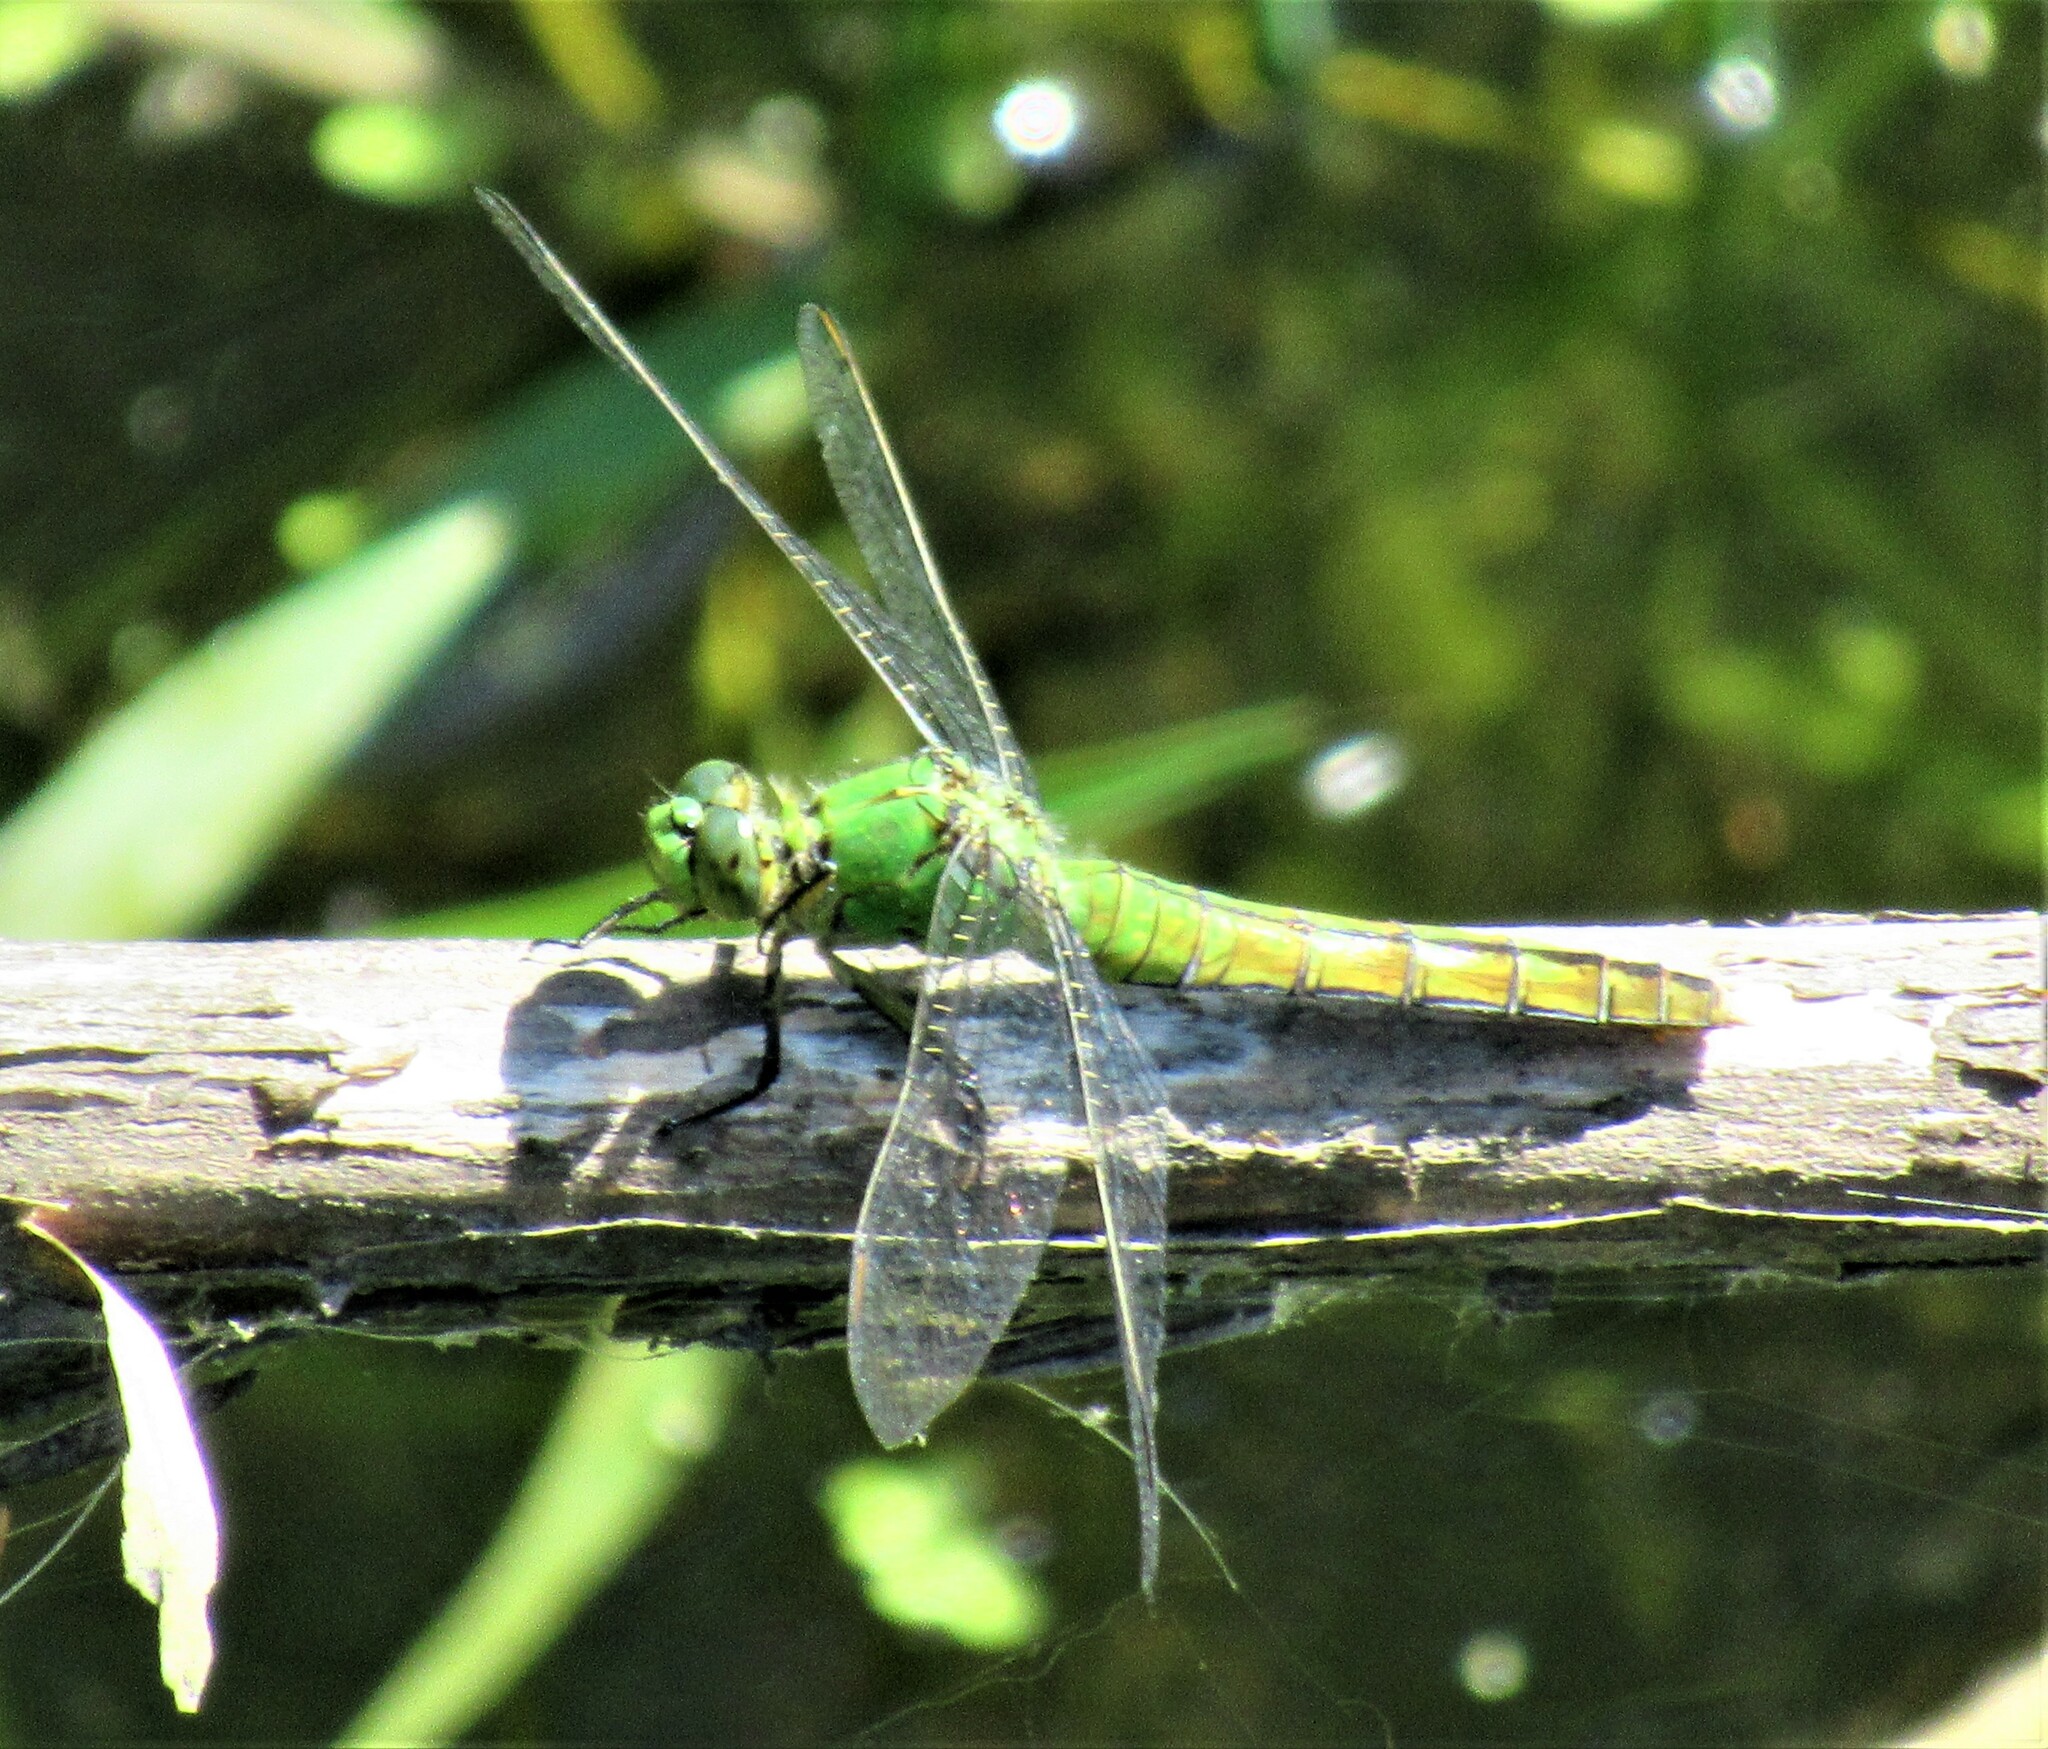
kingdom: Animalia
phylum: Arthropoda
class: Insecta
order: Odonata
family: Libellulidae
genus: Erythemis
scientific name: Erythemis collocata
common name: Western pondhawk
